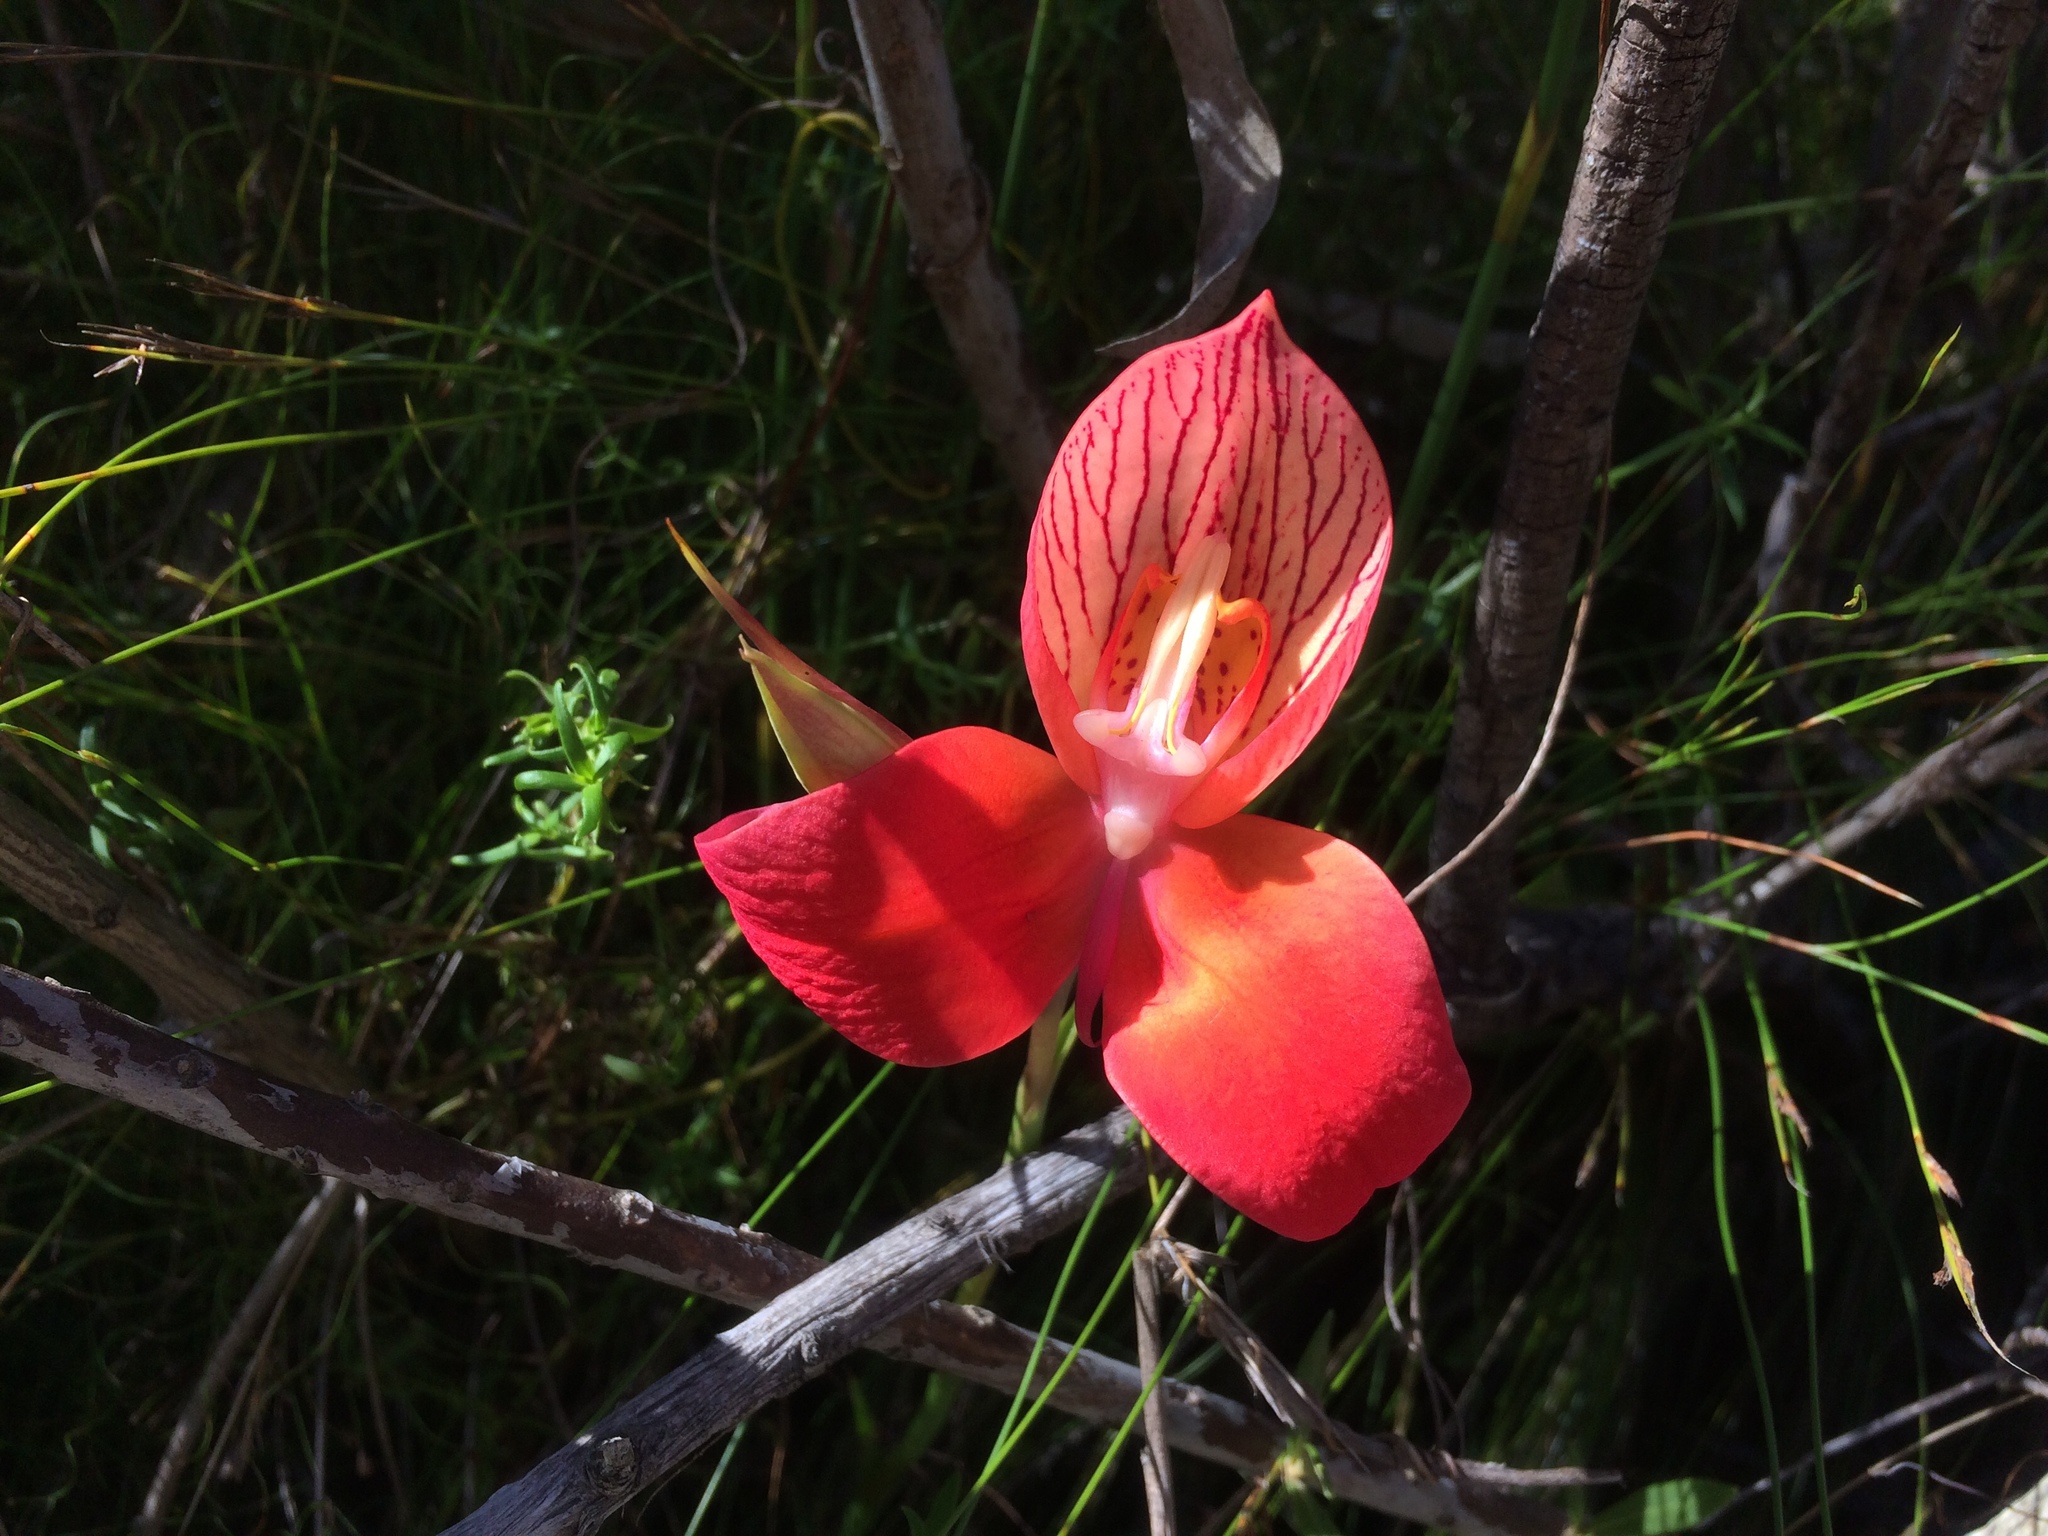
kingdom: Plantae
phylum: Tracheophyta
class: Liliopsida
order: Asparagales
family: Orchidaceae
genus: Disa
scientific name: Disa uniflora
